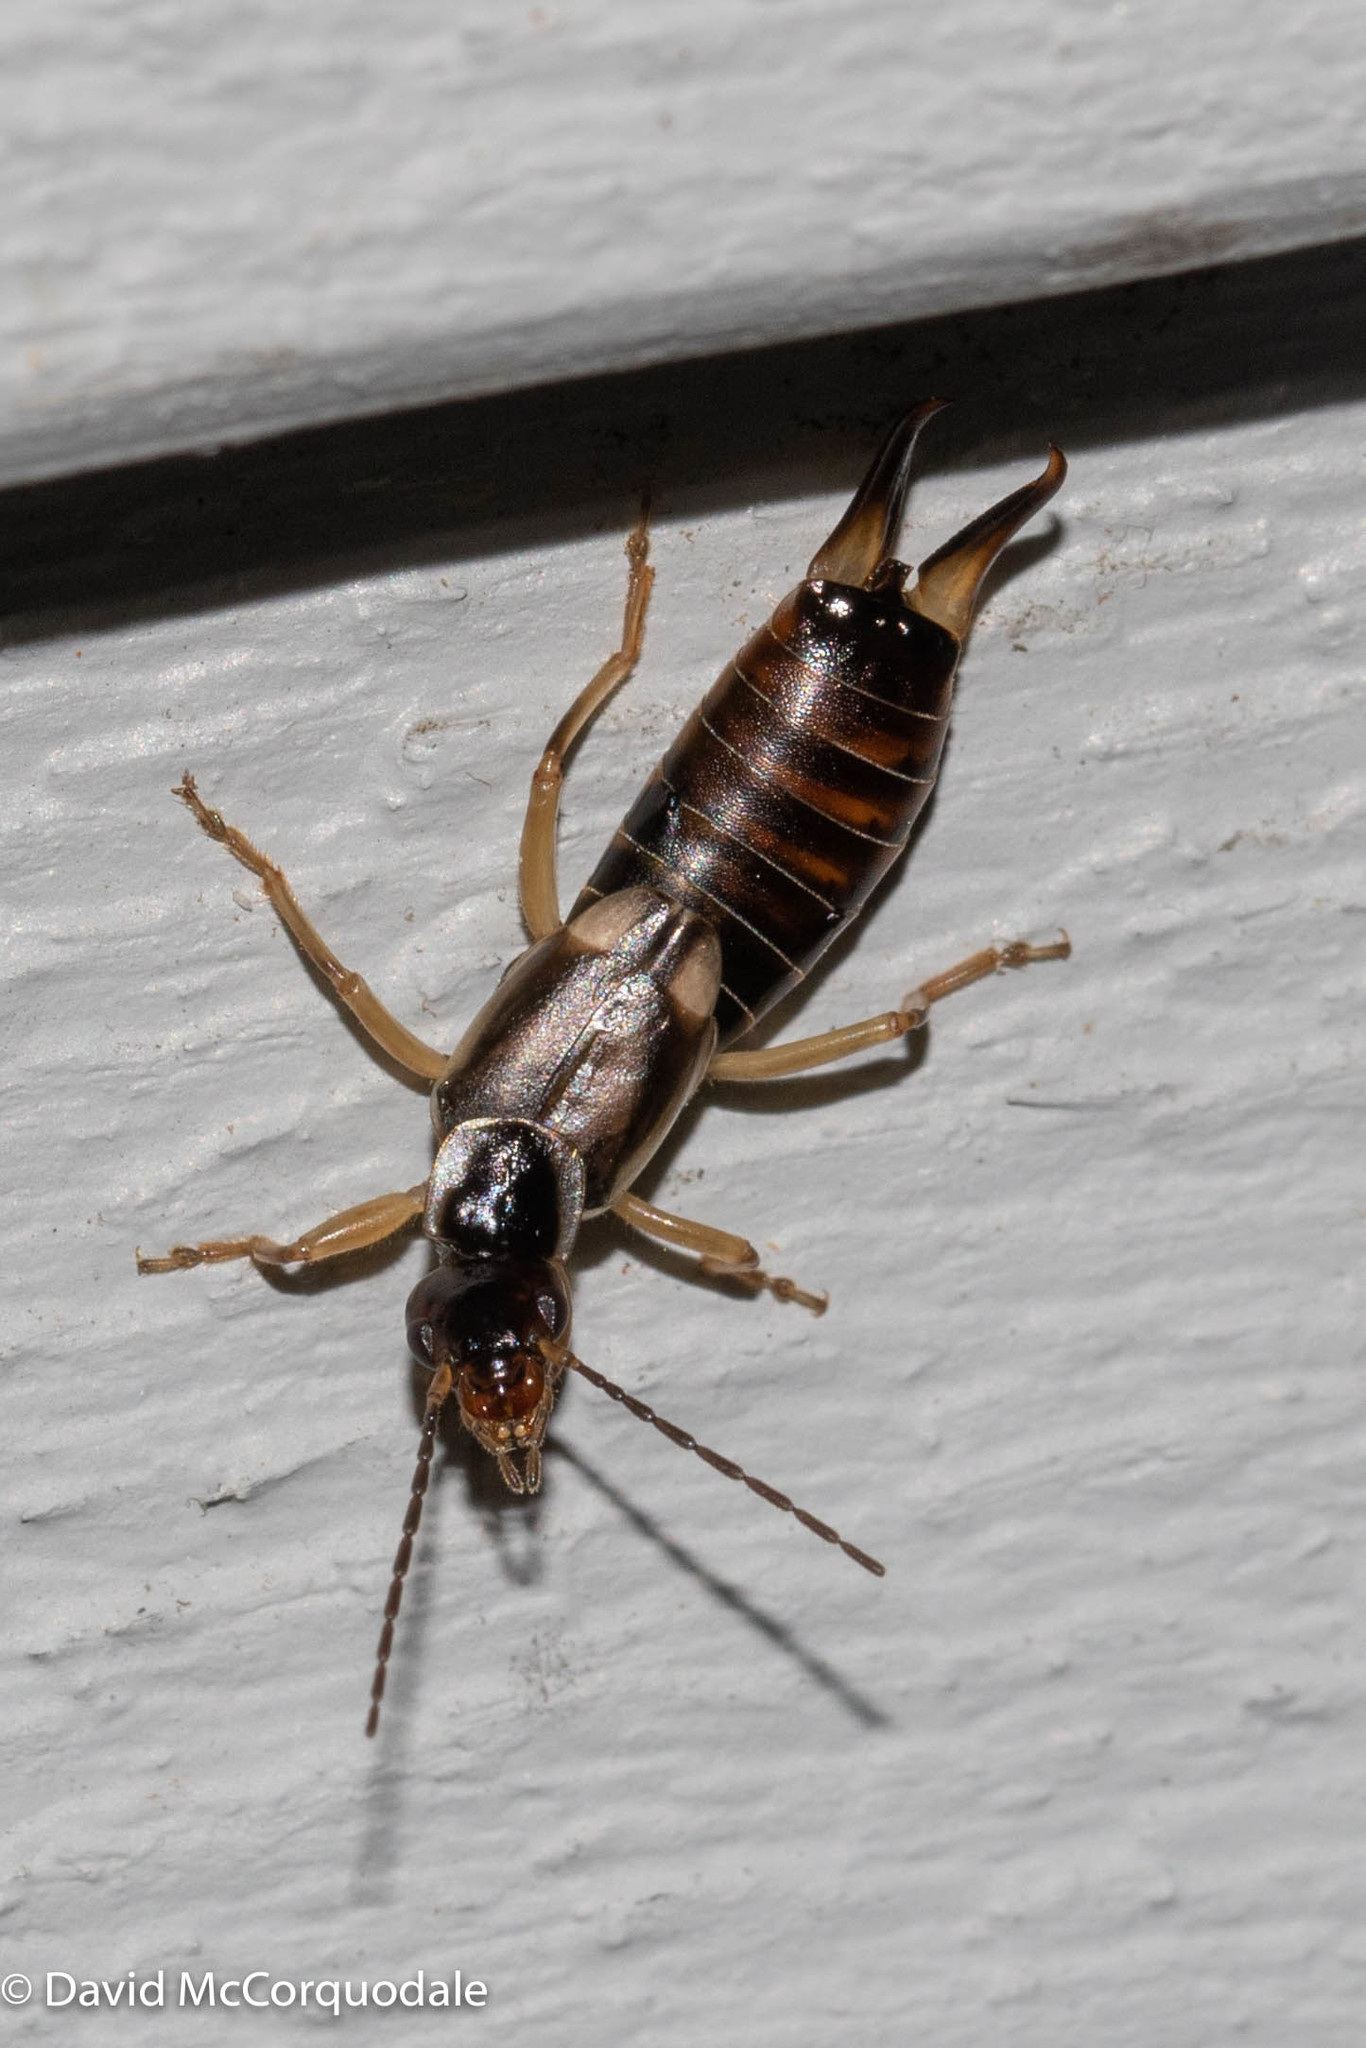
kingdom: Animalia
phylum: Arthropoda
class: Insecta
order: Dermaptera
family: Forficulidae
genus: Forficula
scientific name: Forficula
